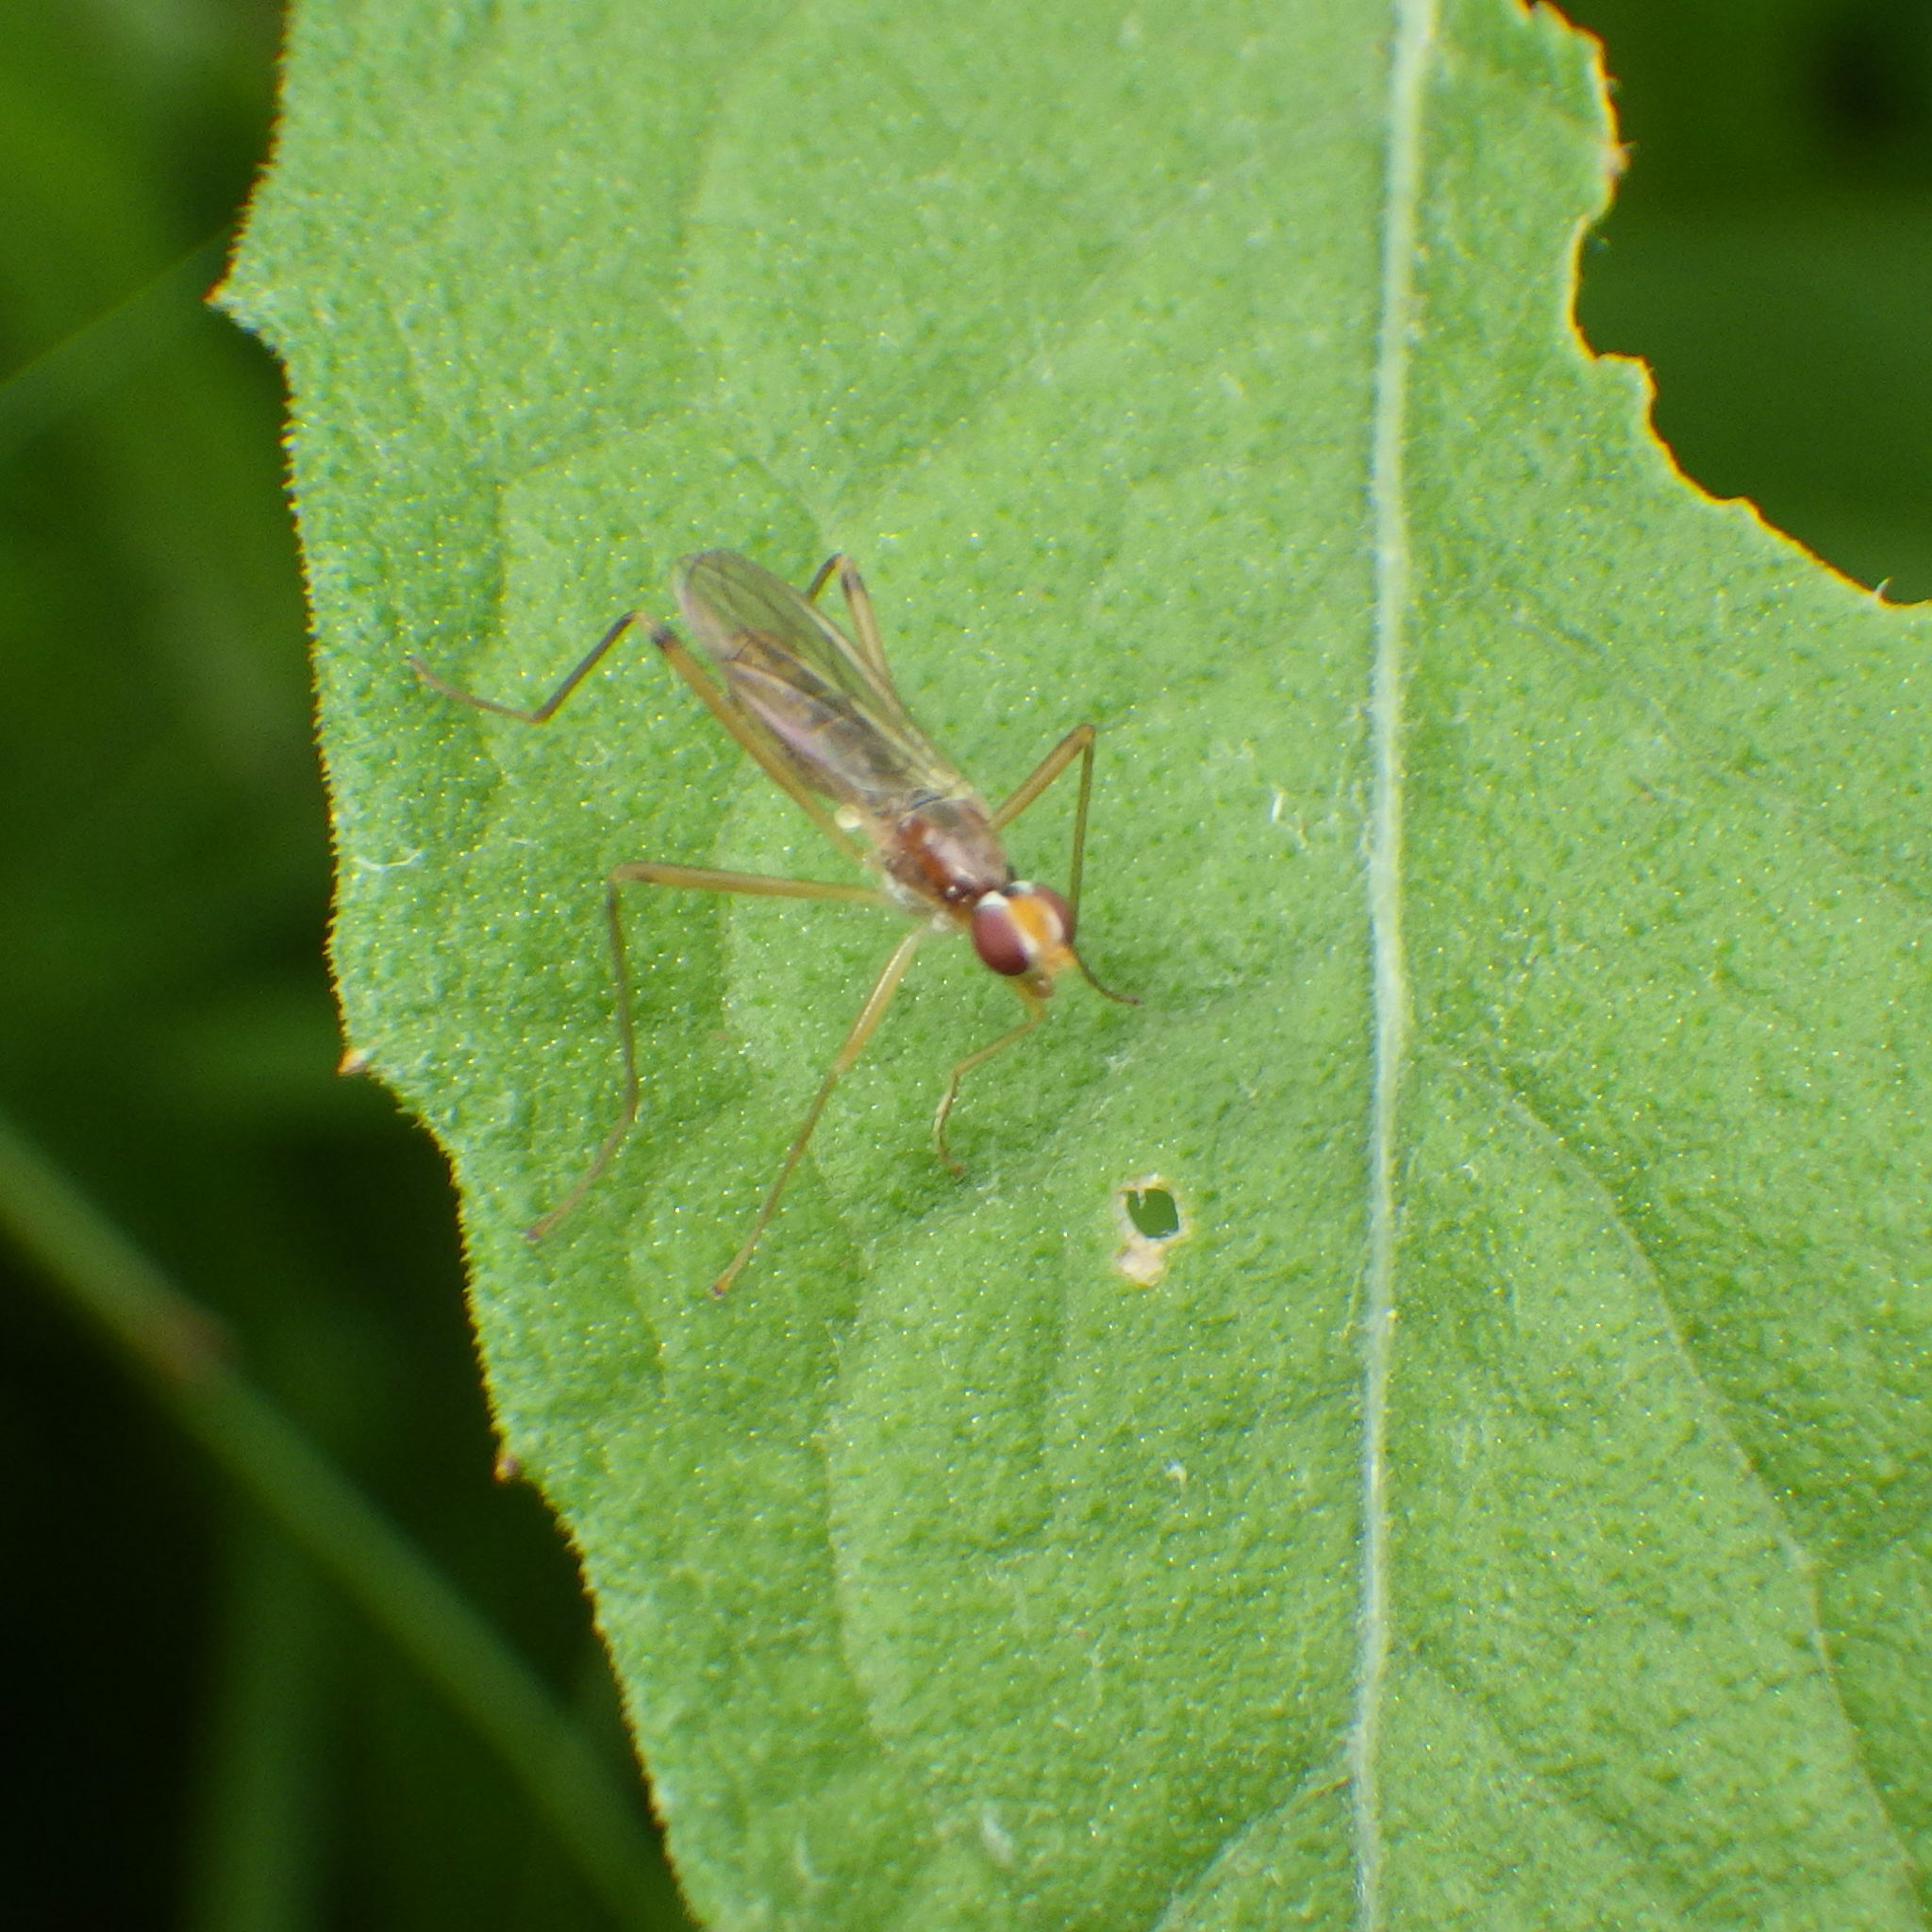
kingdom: Animalia
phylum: Arthropoda
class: Insecta
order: Diptera
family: Micropezidae
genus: Compsobata
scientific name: Compsobata univitta
